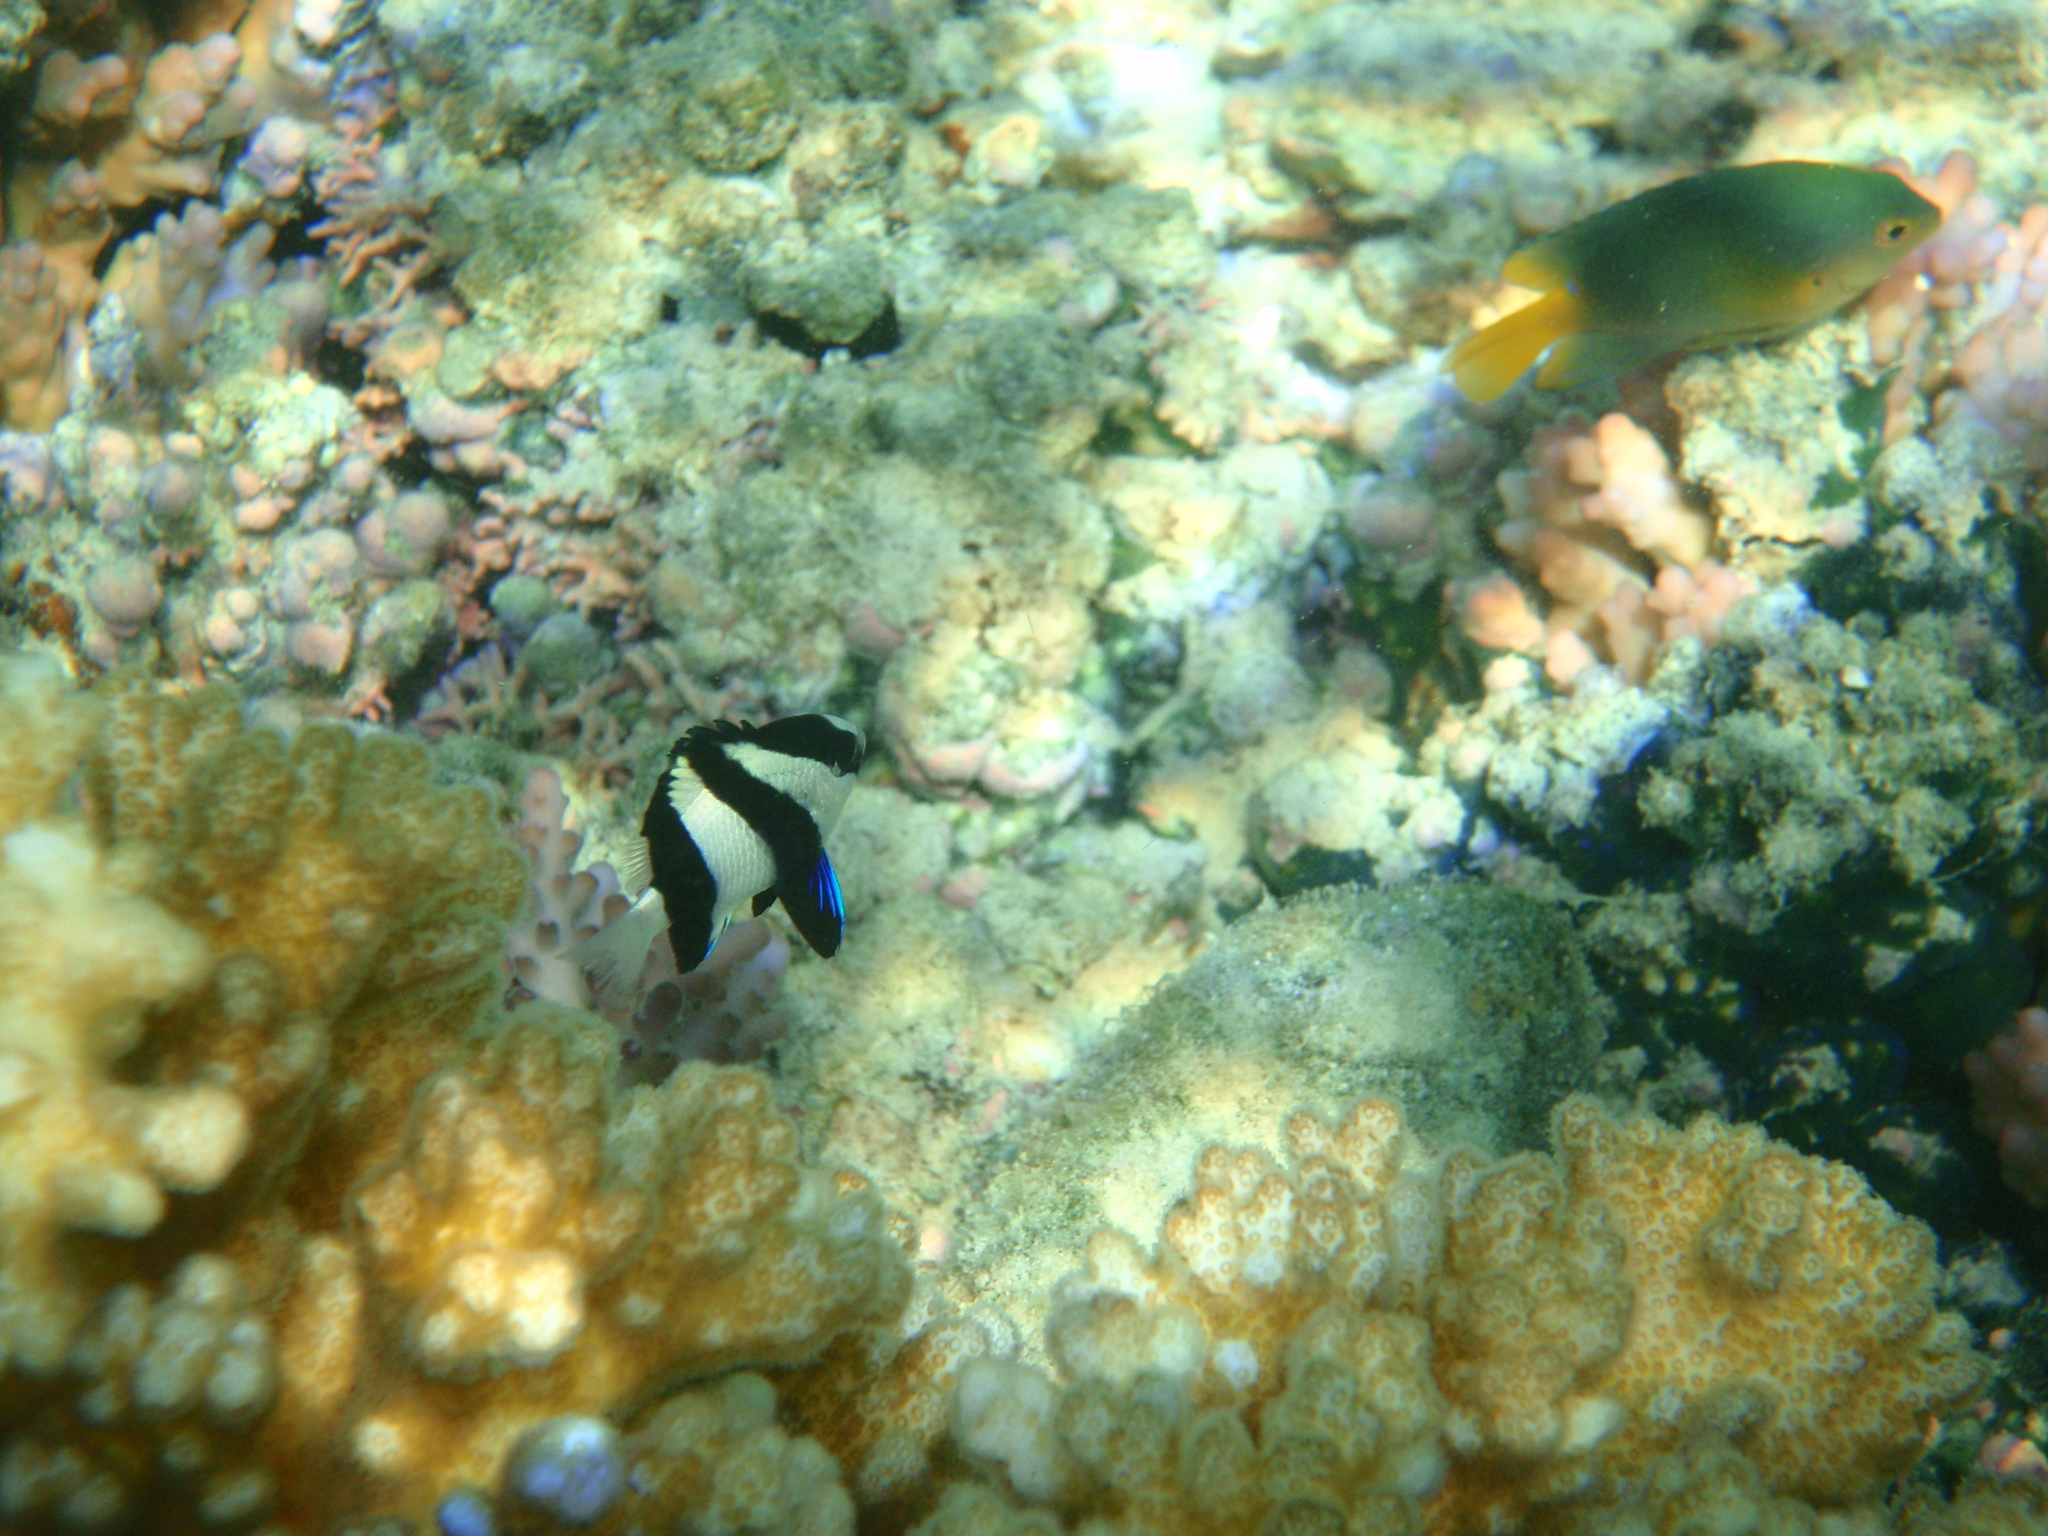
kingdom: Animalia
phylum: Chordata
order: Perciformes
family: Pomacentridae
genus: Dascyllus
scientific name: Dascyllus aruanus
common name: Humbug dascyllus
